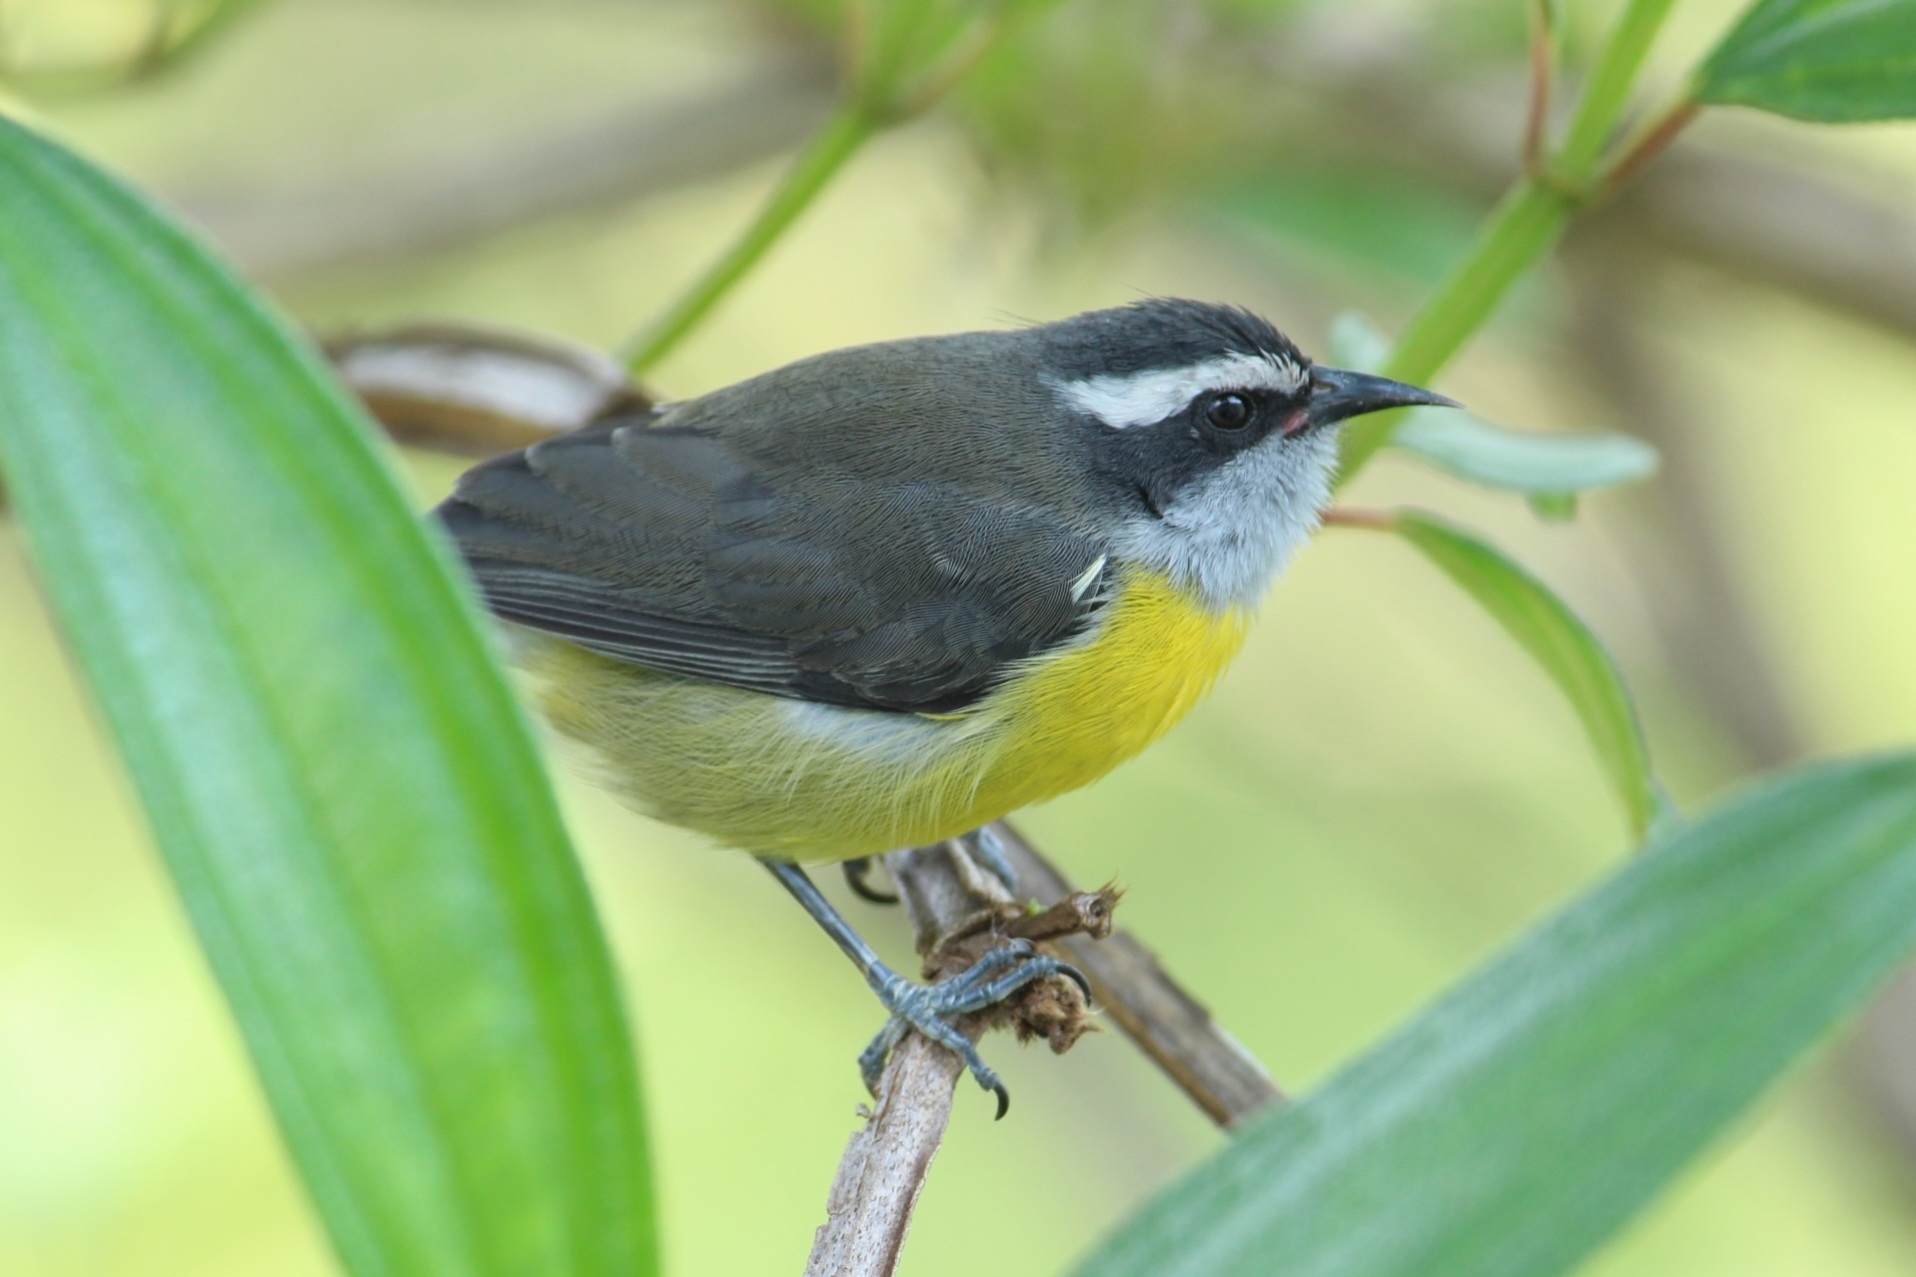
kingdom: Animalia
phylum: Chordata
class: Aves
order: Passeriformes
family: Thraupidae
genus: Coereba
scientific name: Coereba flaveola
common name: Bananaquit
